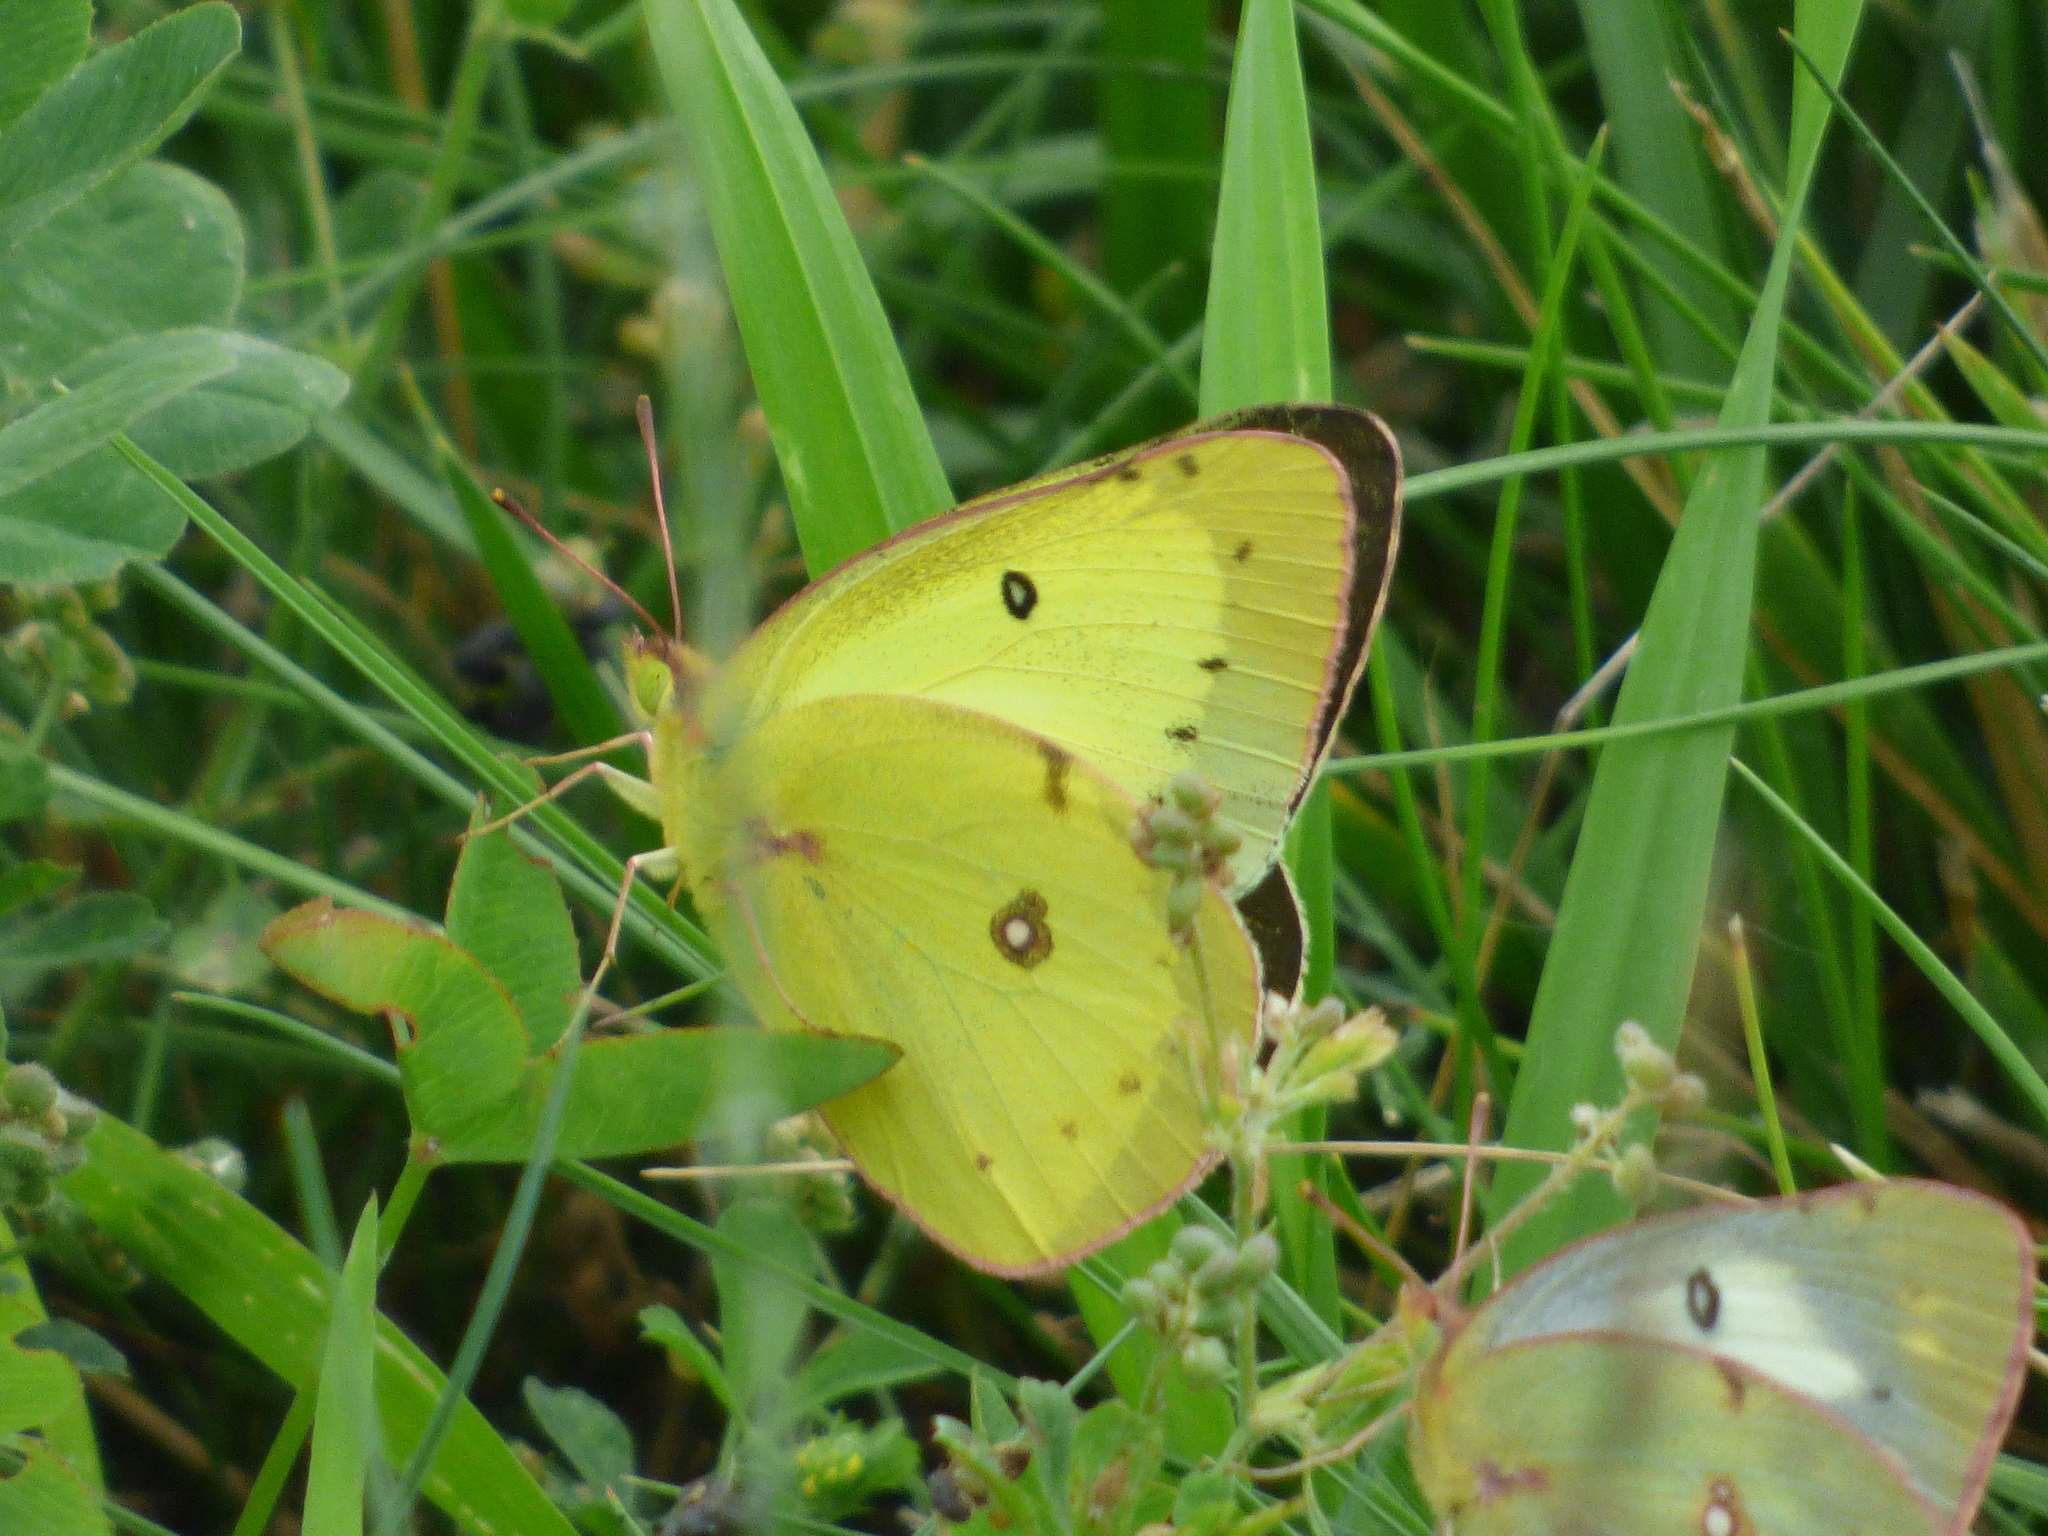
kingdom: Animalia
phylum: Arthropoda
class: Insecta
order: Lepidoptera
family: Pieridae
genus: Colias
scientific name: Colias philodice
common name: Clouded sulphur
